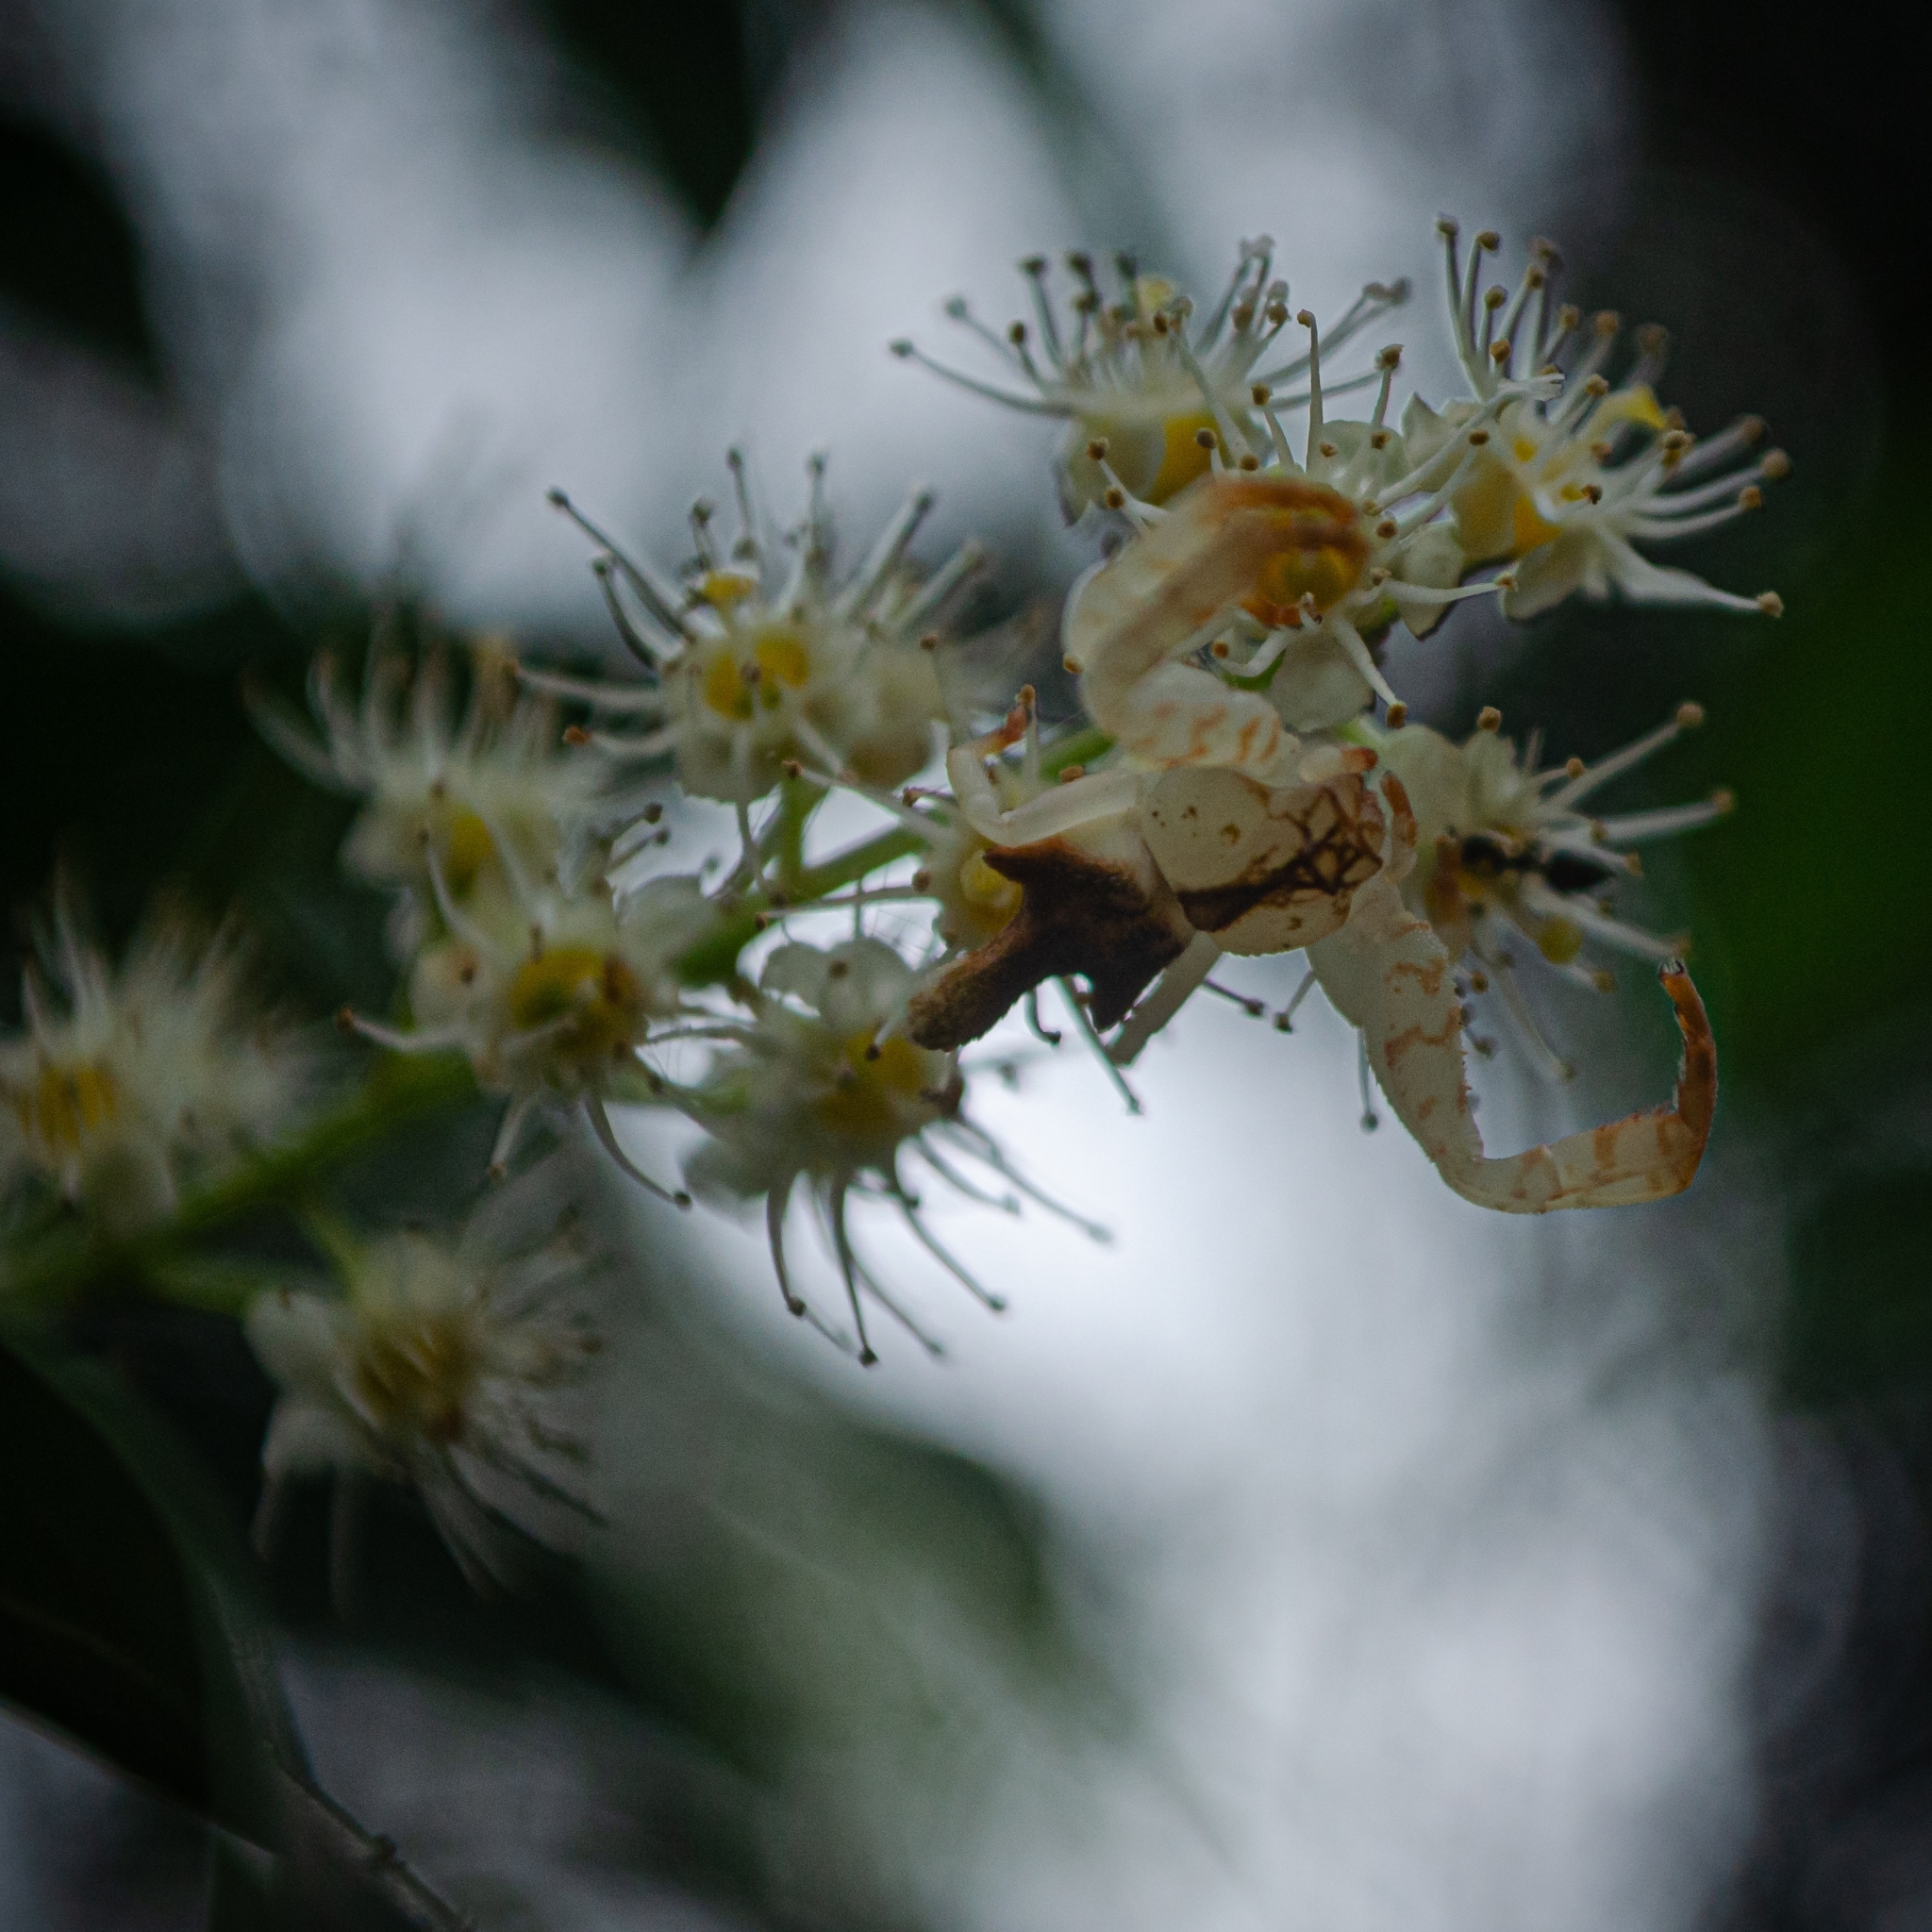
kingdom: Animalia
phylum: Arthropoda
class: Arachnida
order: Araneae
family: Thomisidae
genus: Epicadus
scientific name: Epicadus rubripes
